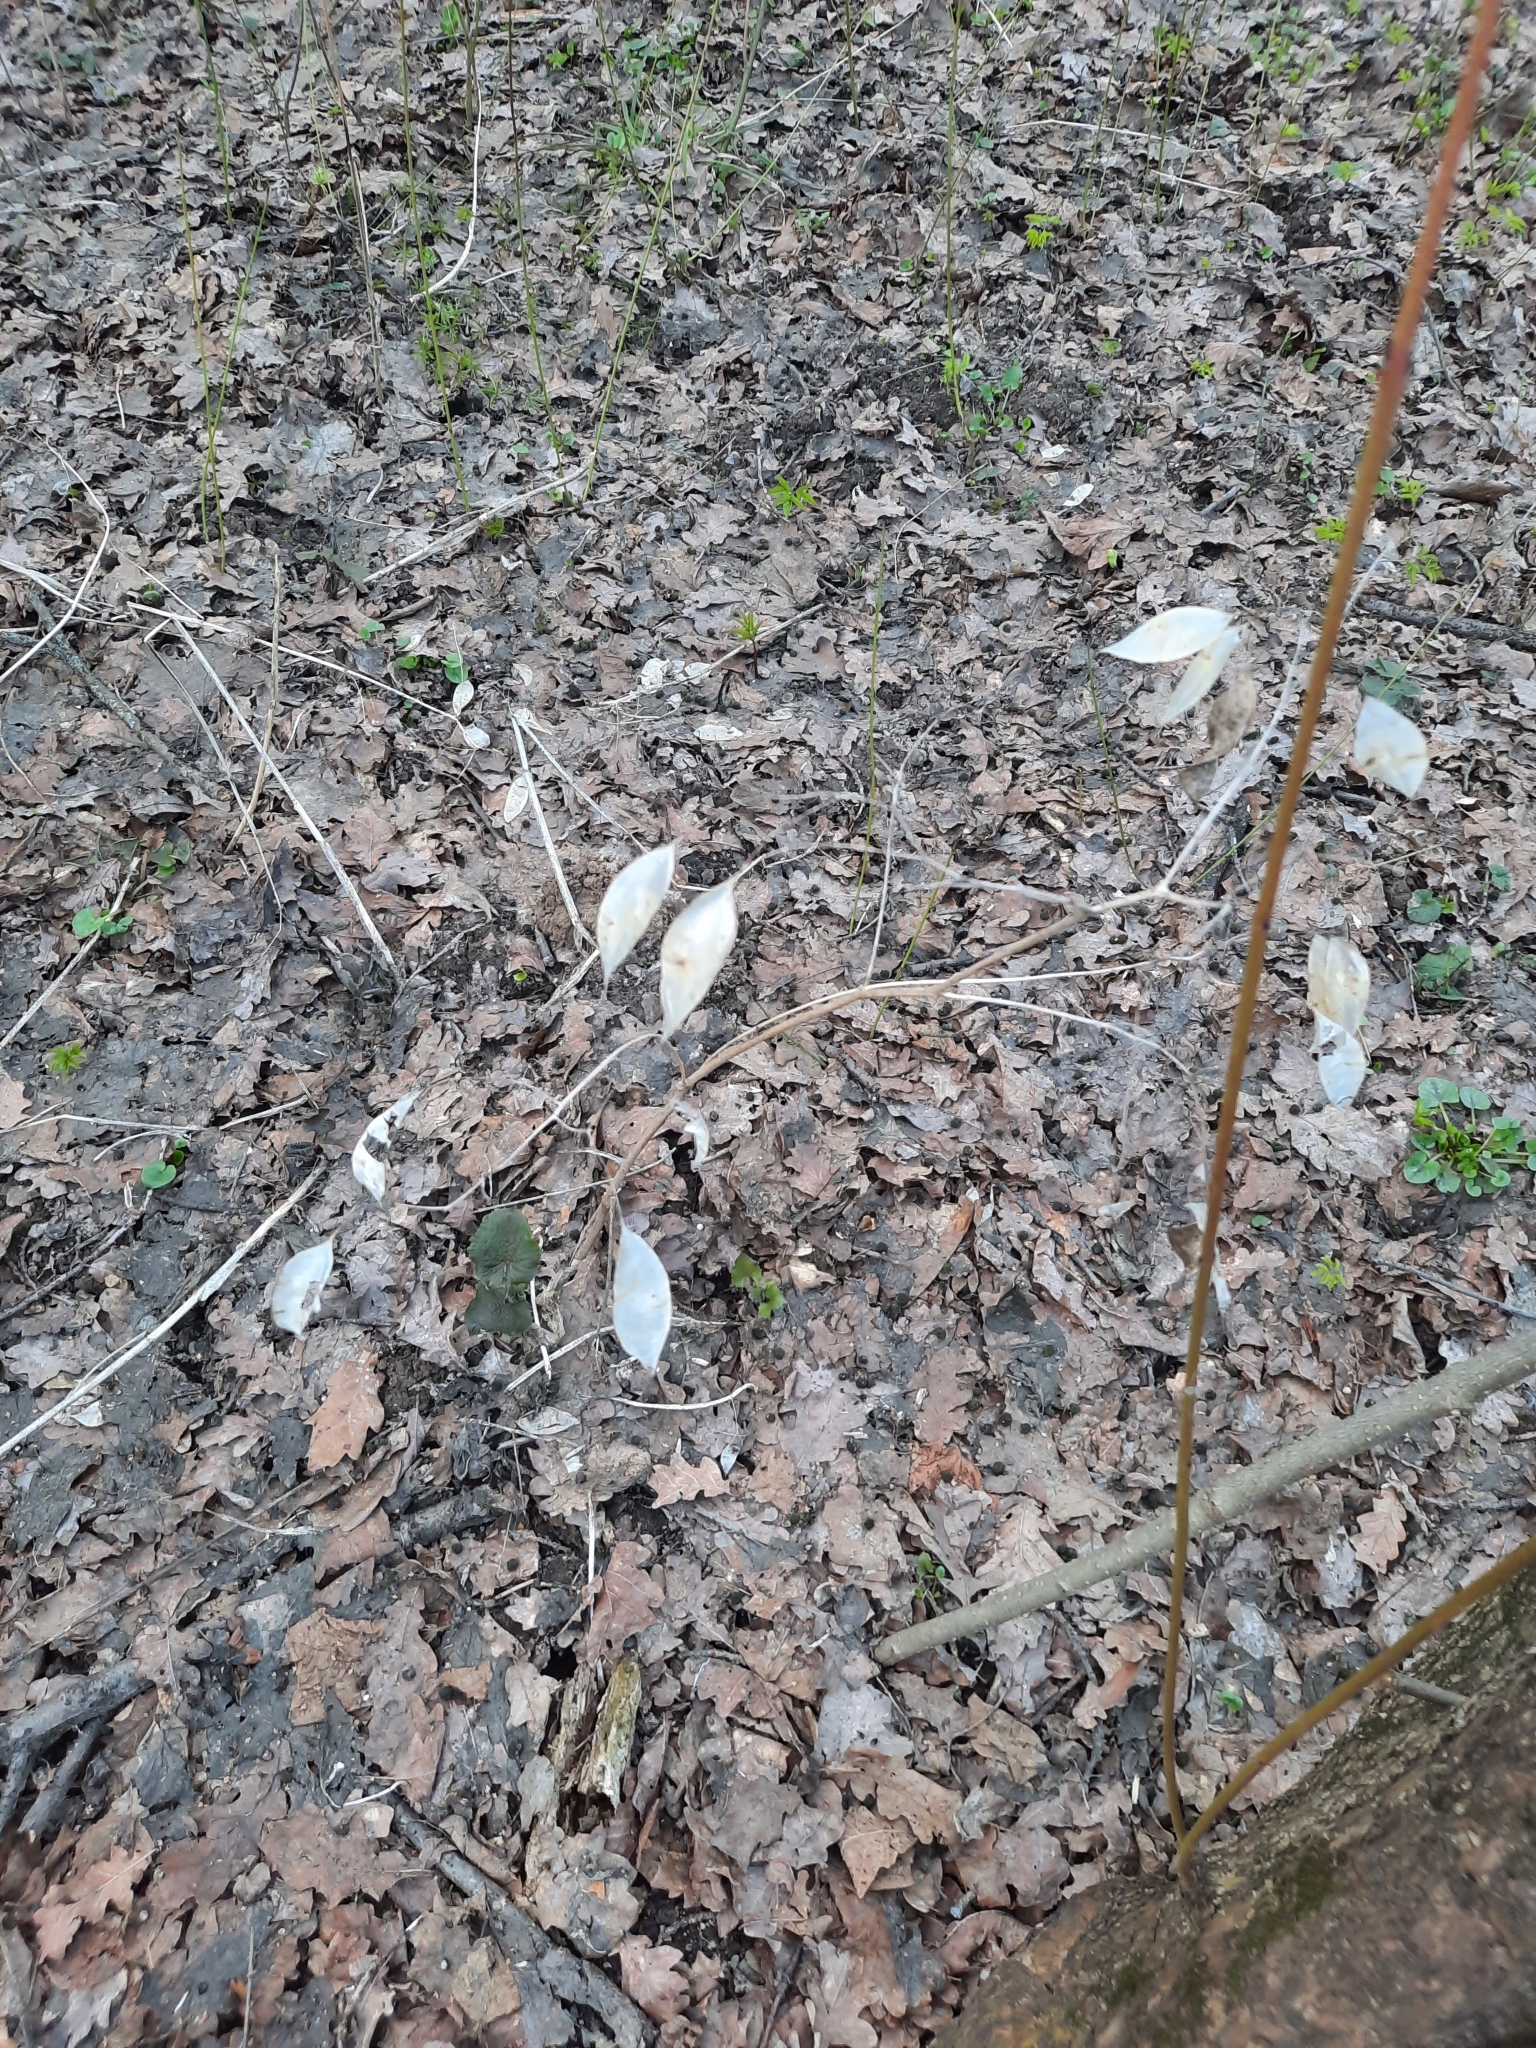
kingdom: Plantae
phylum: Tracheophyta
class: Magnoliopsida
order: Brassicales
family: Brassicaceae
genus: Lunaria
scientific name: Lunaria rediviva
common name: Perennial honesty
